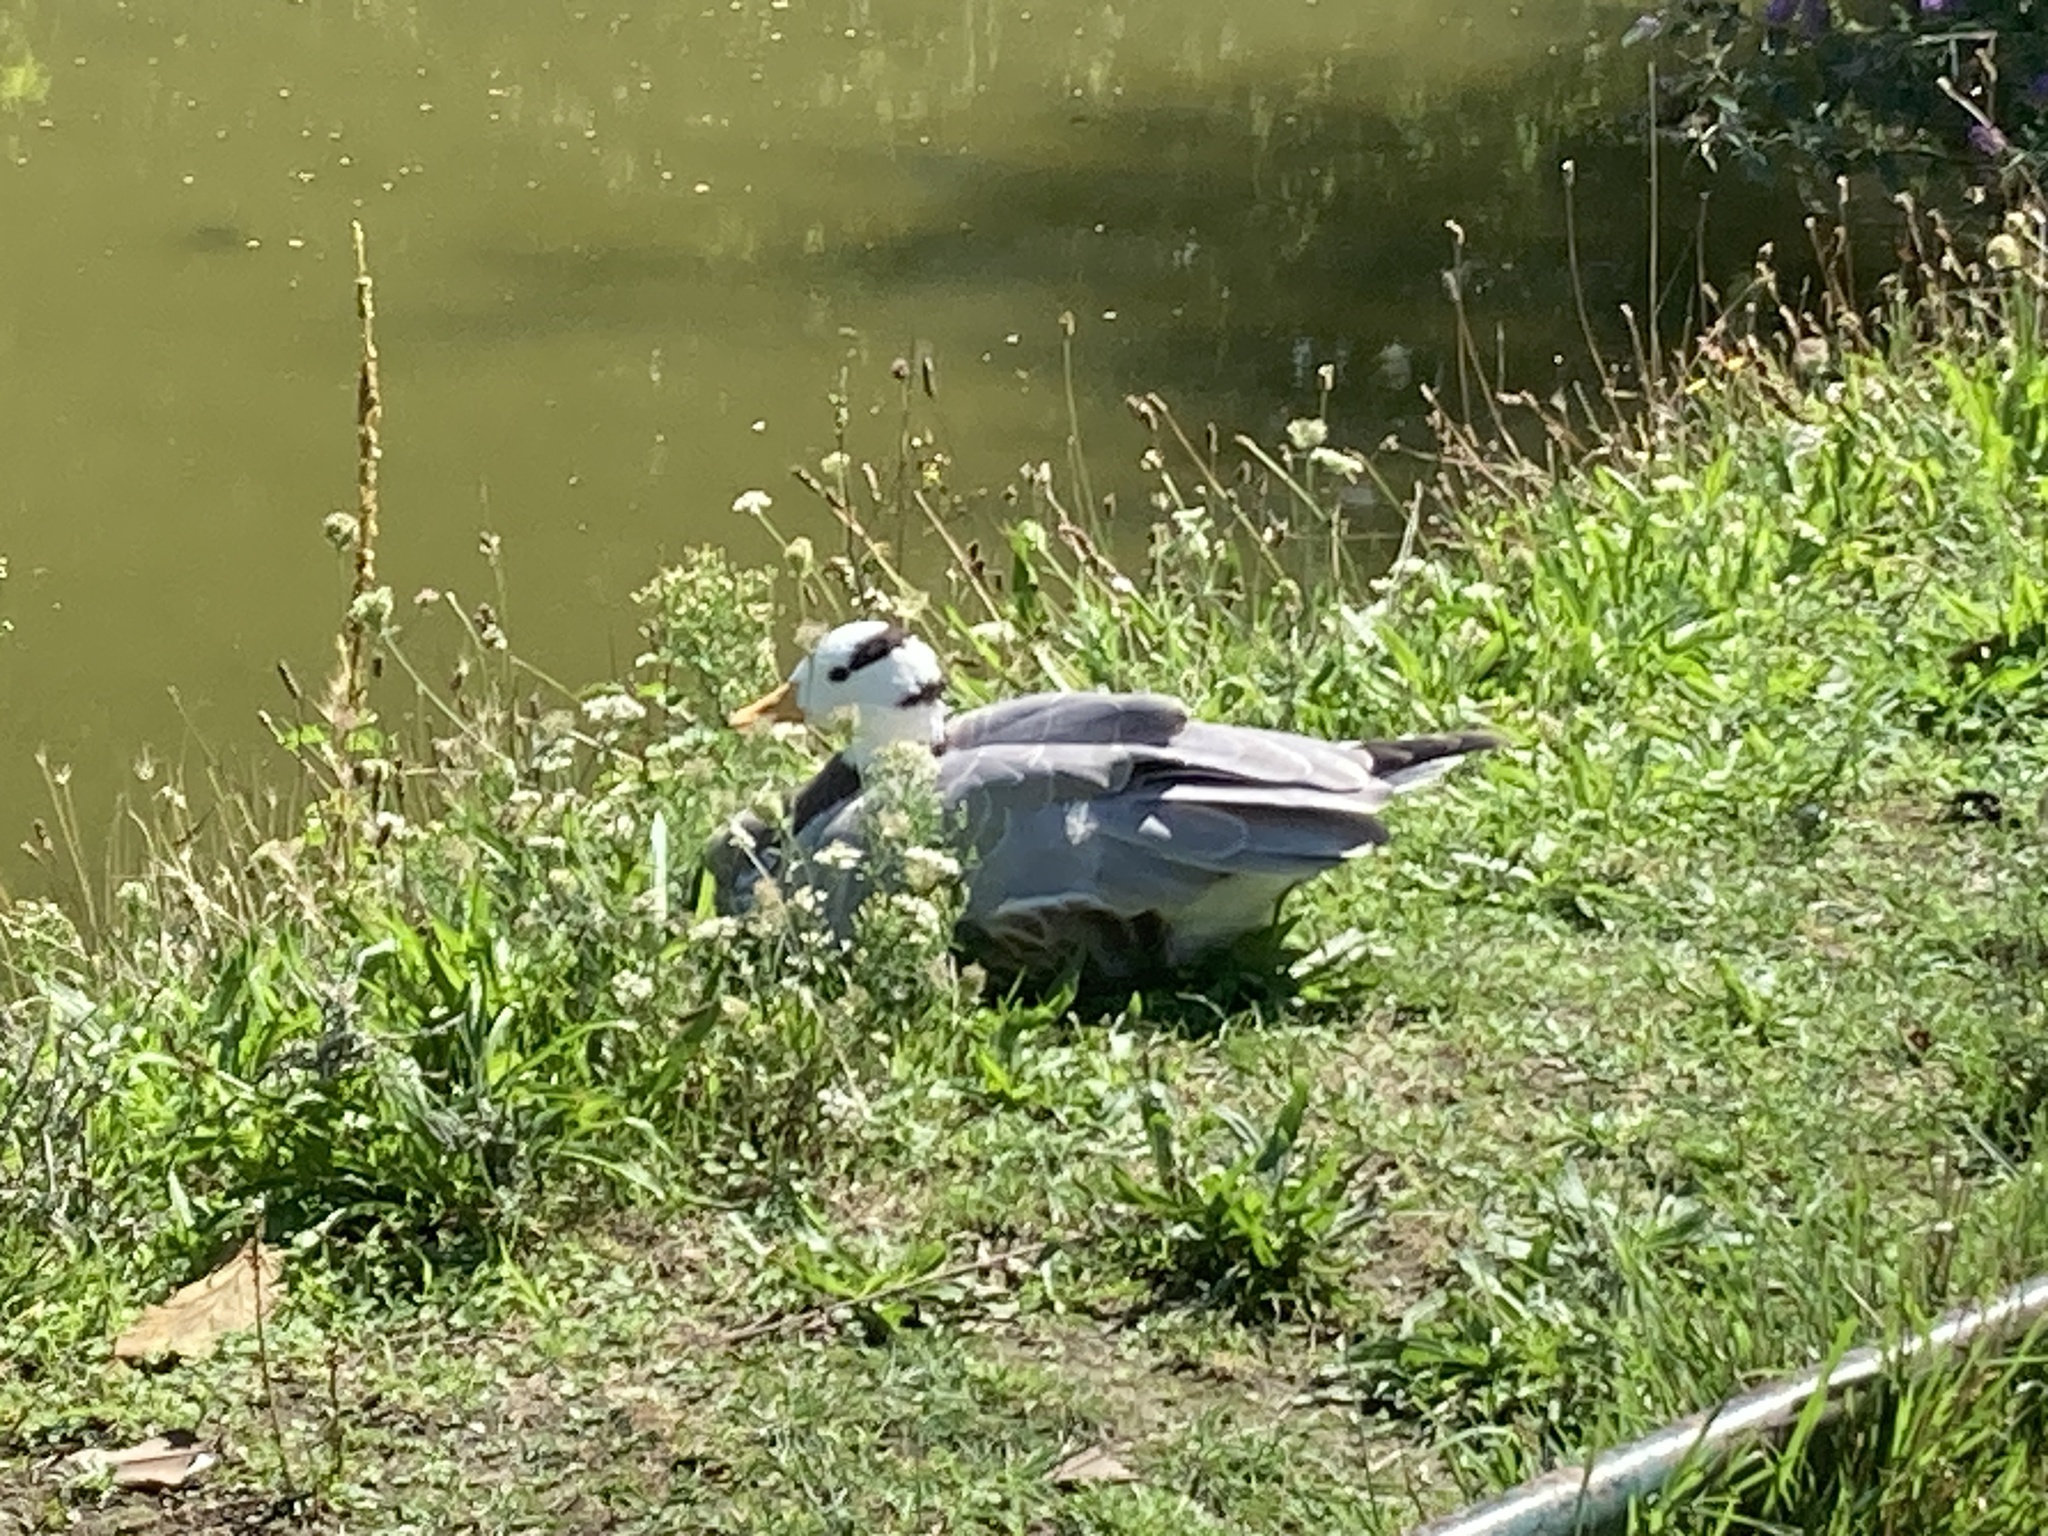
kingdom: Animalia
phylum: Chordata
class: Aves
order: Anseriformes
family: Anatidae
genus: Anser
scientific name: Anser indicus
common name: Bar-headed goose
